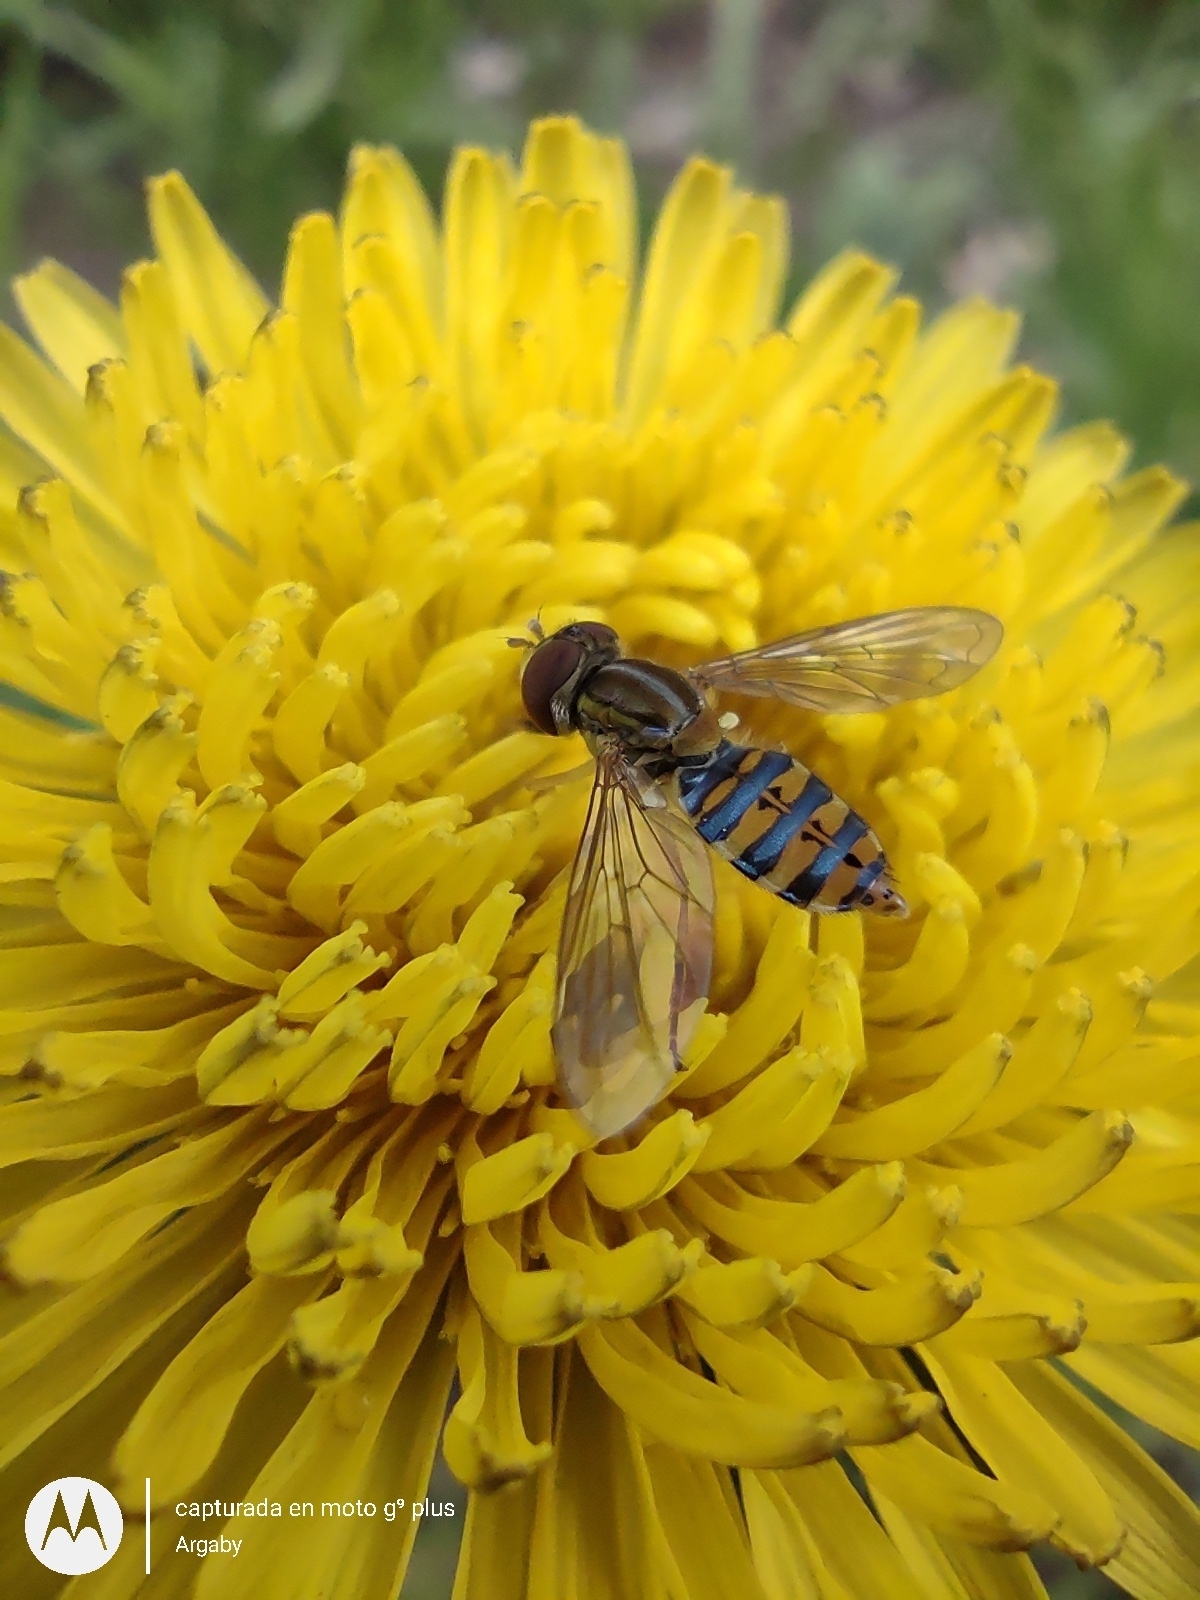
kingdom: Animalia
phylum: Arthropoda
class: Insecta
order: Diptera
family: Syrphidae
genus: Toxomerus
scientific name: Toxomerus
